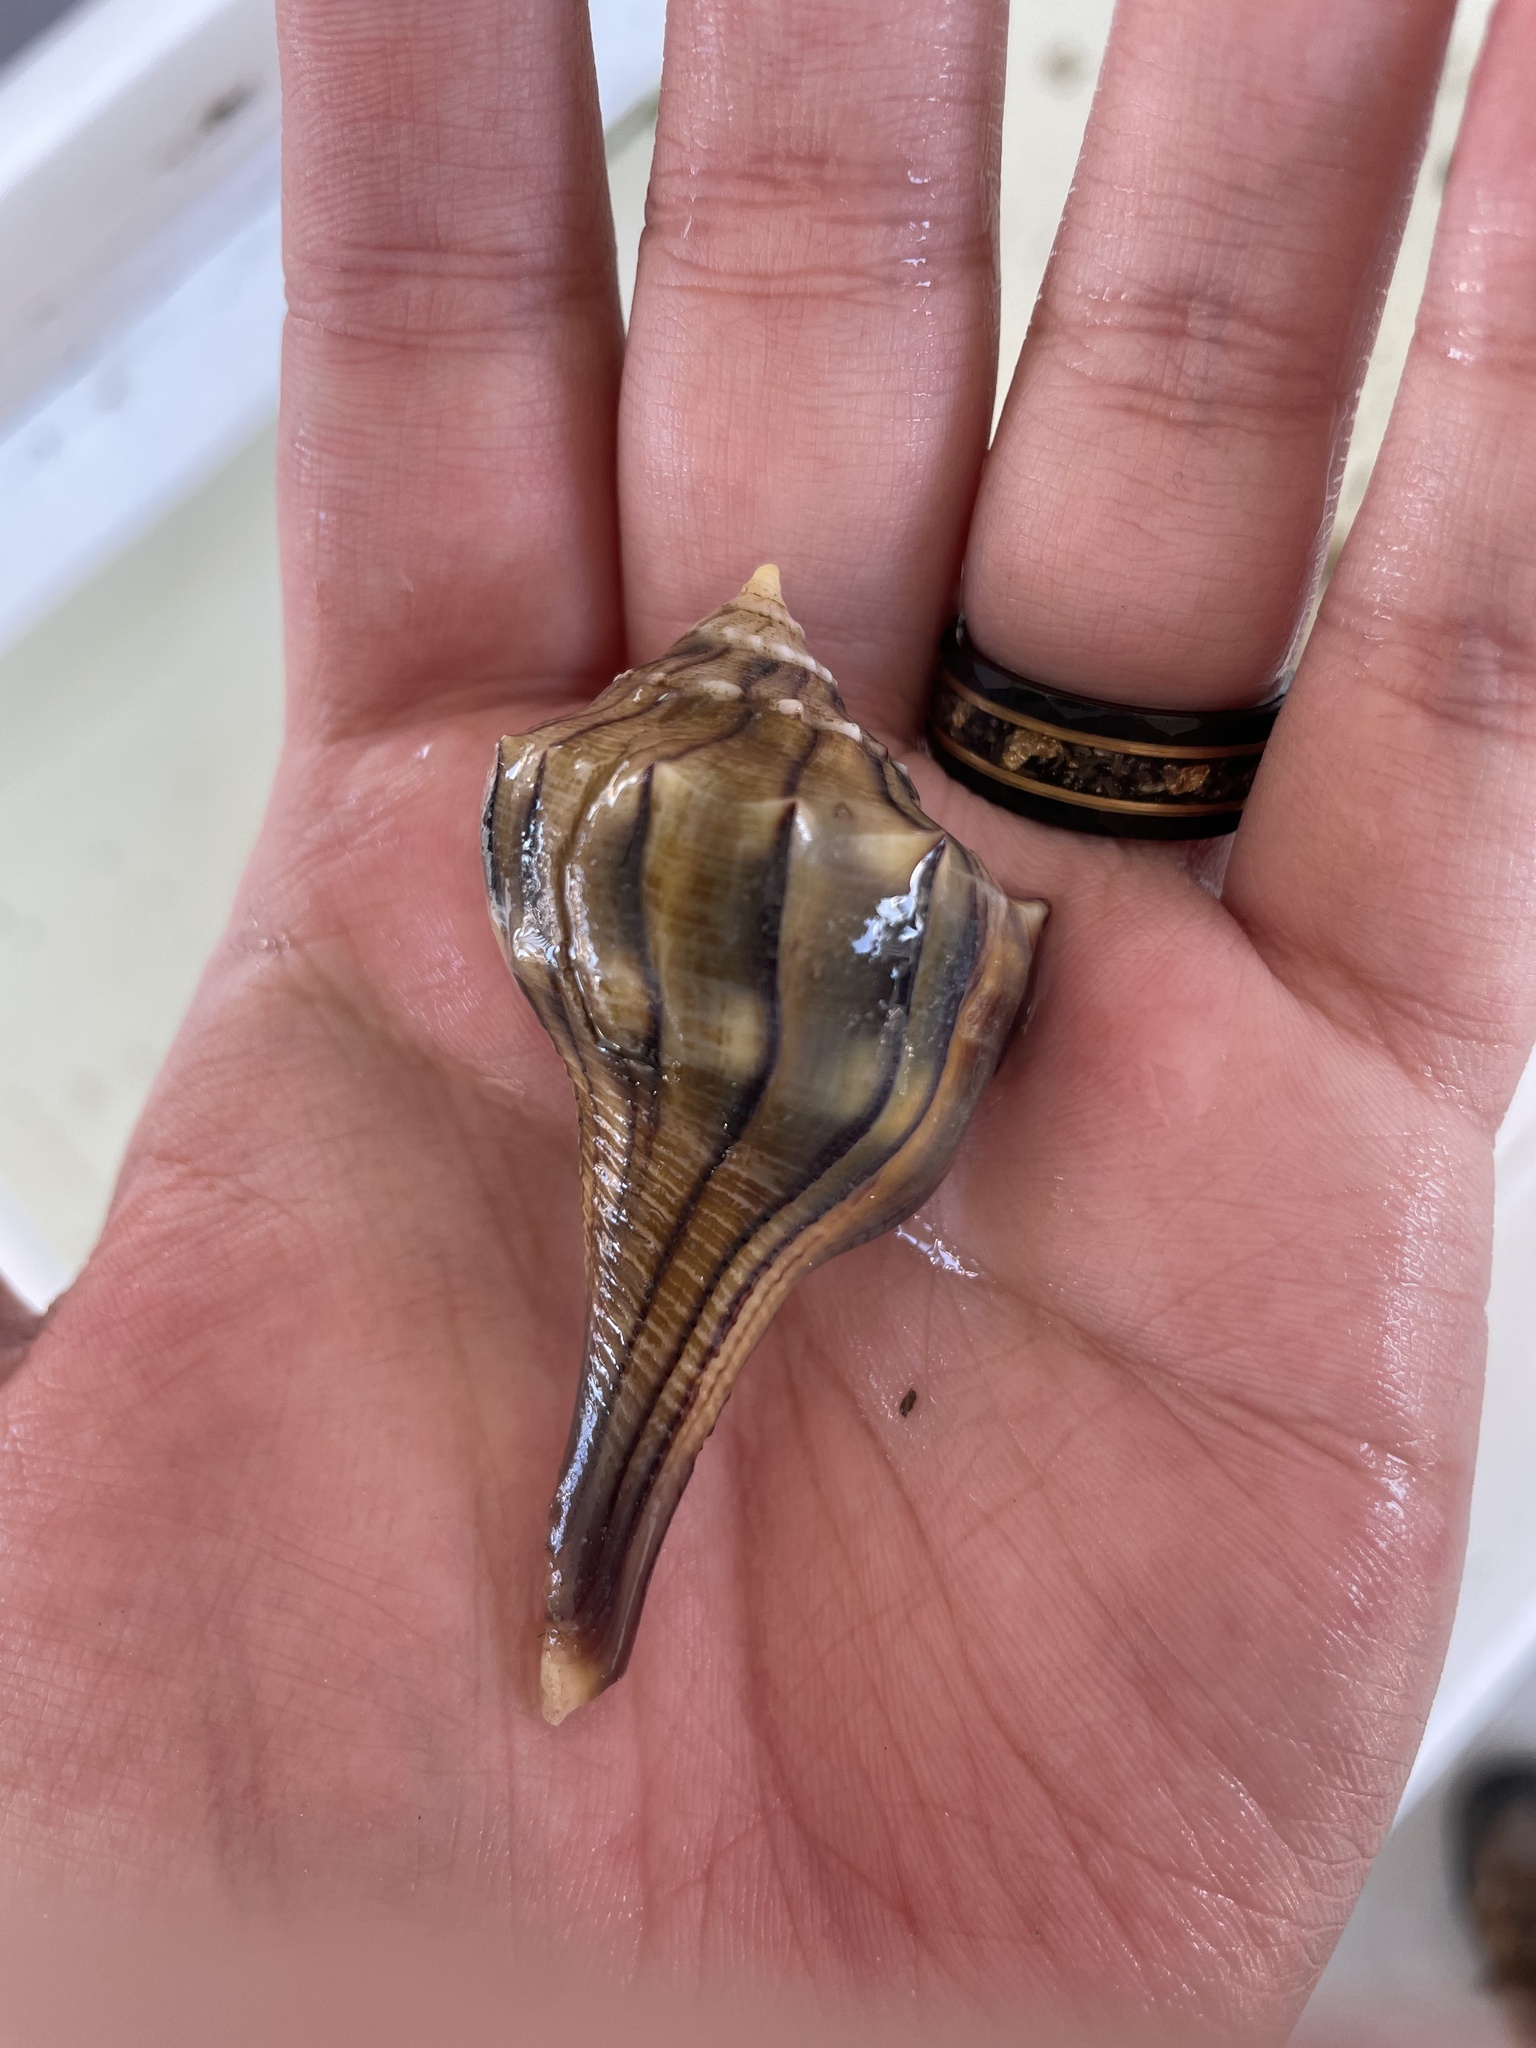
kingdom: Animalia
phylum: Mollusca
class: Gastropoda
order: Neogastropoda
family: Busyconidae
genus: Sinistrofulgur
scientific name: Sinistrofulgur pulleyi
